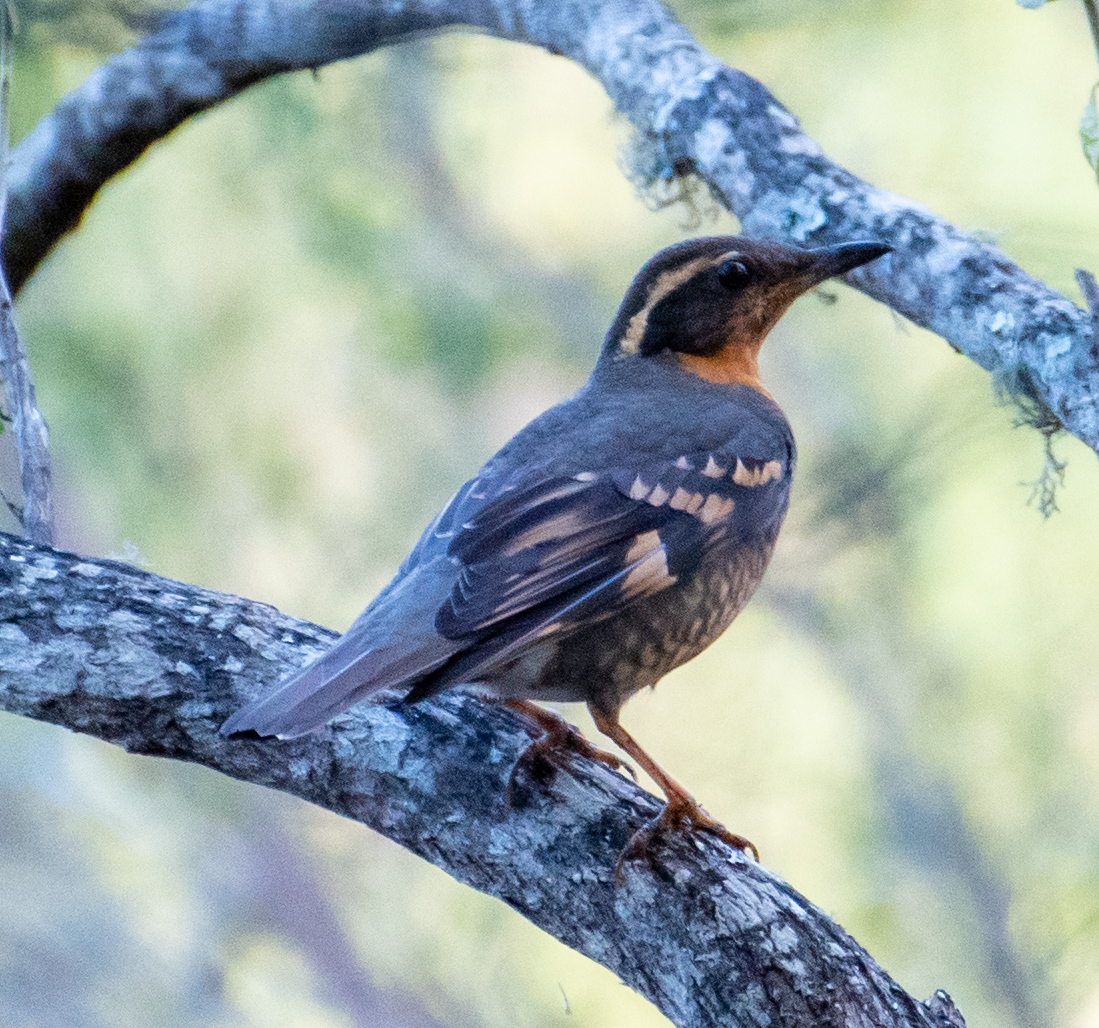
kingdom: Animalia
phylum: Chordata
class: Aves
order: Passeriformes
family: Turdidae
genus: Ixoreus
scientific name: Ixoreus naevius
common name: Varied thrush
